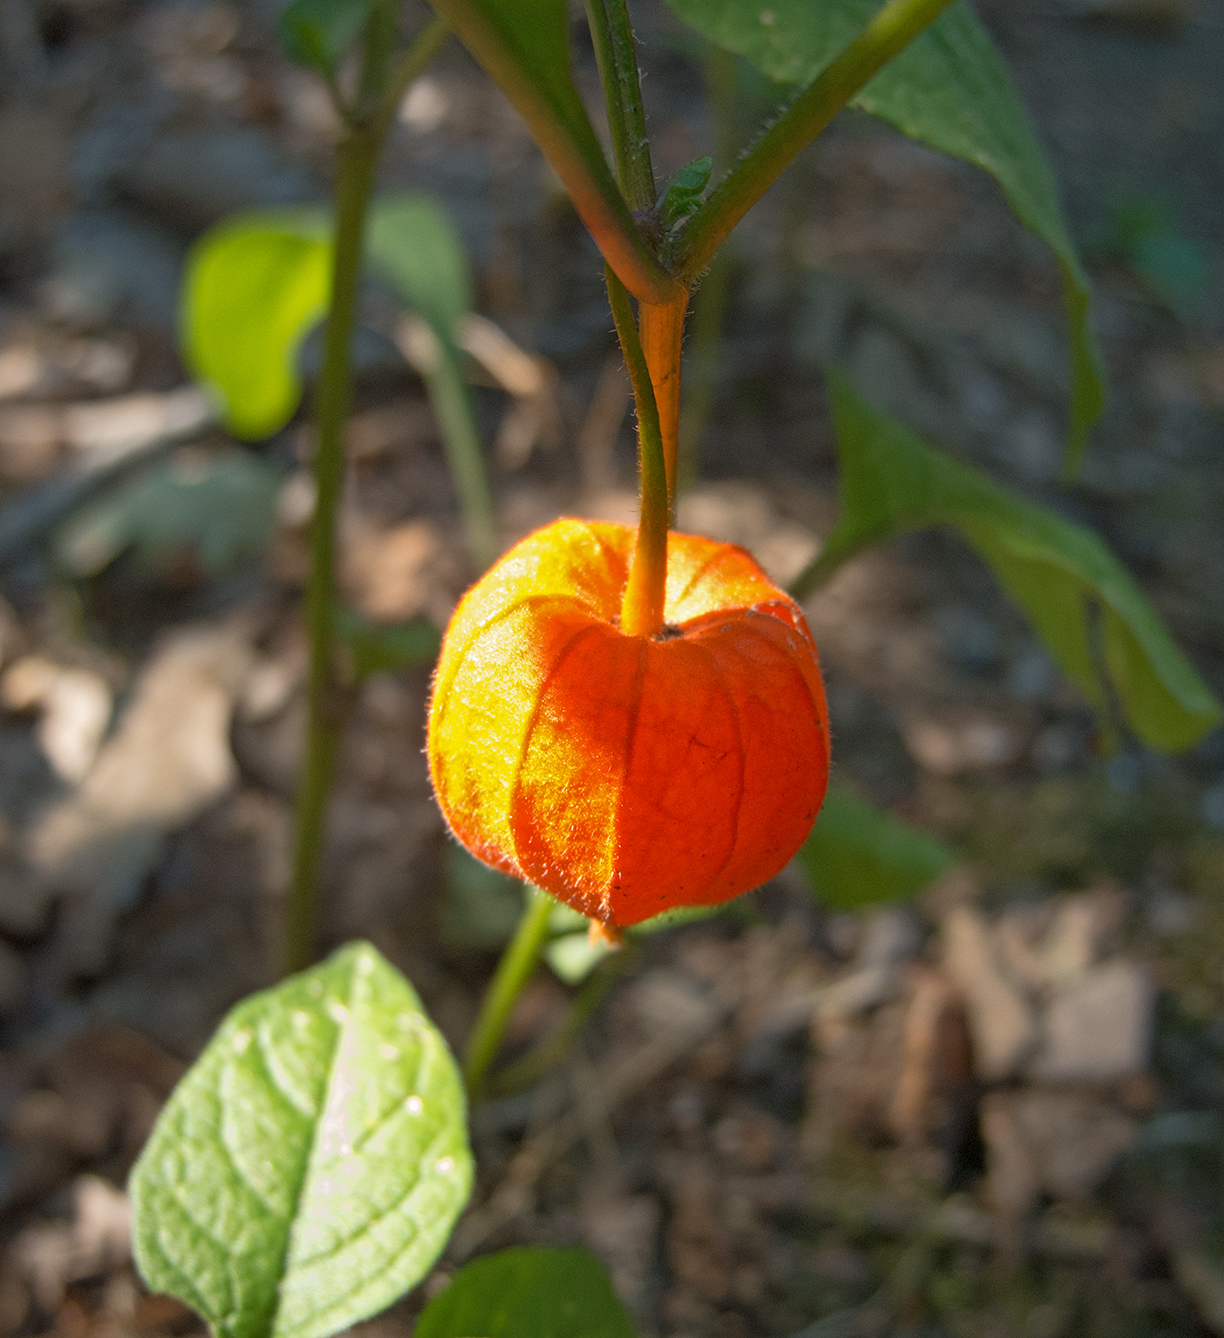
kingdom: Plantae
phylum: Tracheophyta
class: Magnoliopsida
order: Solanales
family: Solanaceae
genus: Alkekengi
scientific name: Alkekengi officinarum
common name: Japanese-lantern
